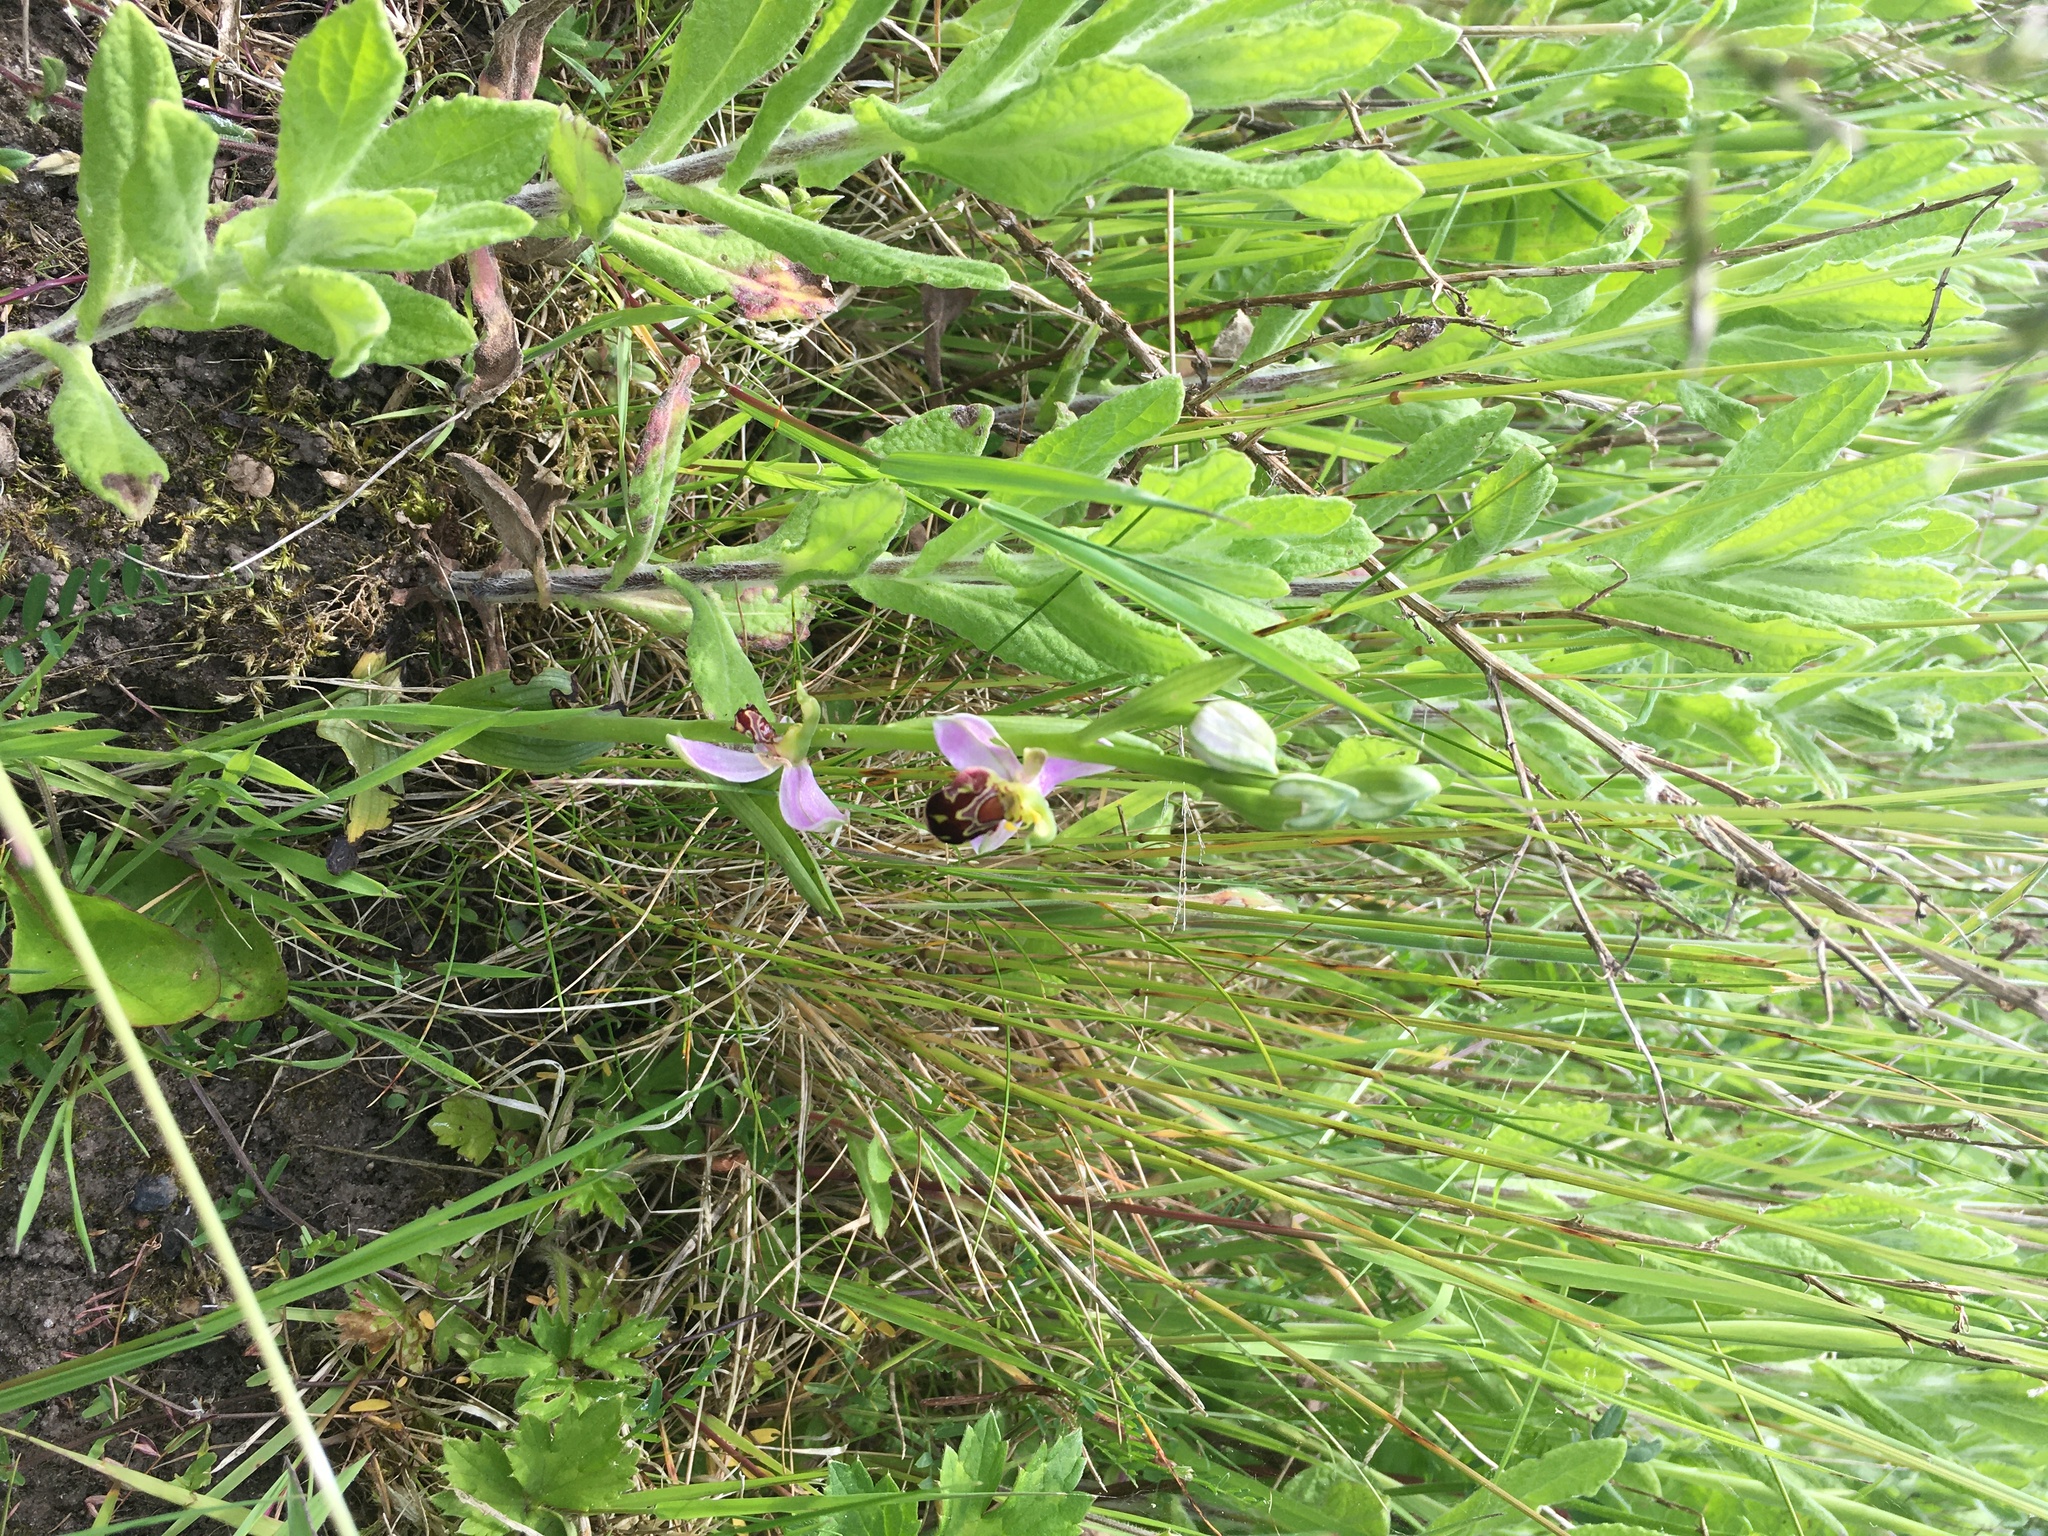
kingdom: Plantae
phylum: Tracheophyta
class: Liliopsida
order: Asparagales
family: Orchidaceae
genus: Ophrys
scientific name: Ophrys apifera
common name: Bee orchid
